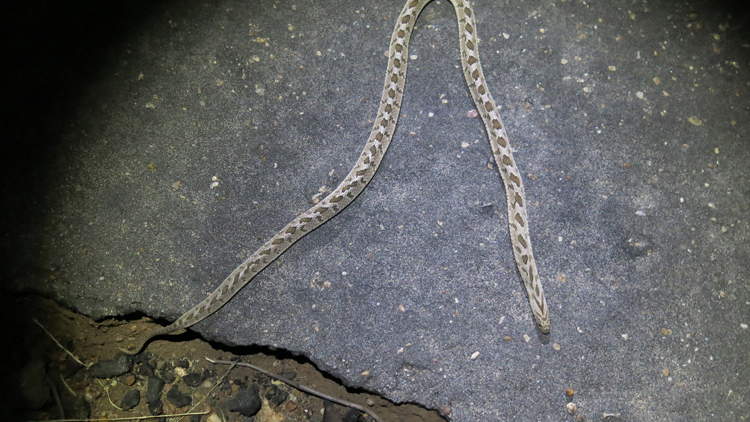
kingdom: Animalia
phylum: Chordata
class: Squamata
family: Colubridae
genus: Dasypeltis
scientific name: Dasypeltis scabra
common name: Common egg eater
